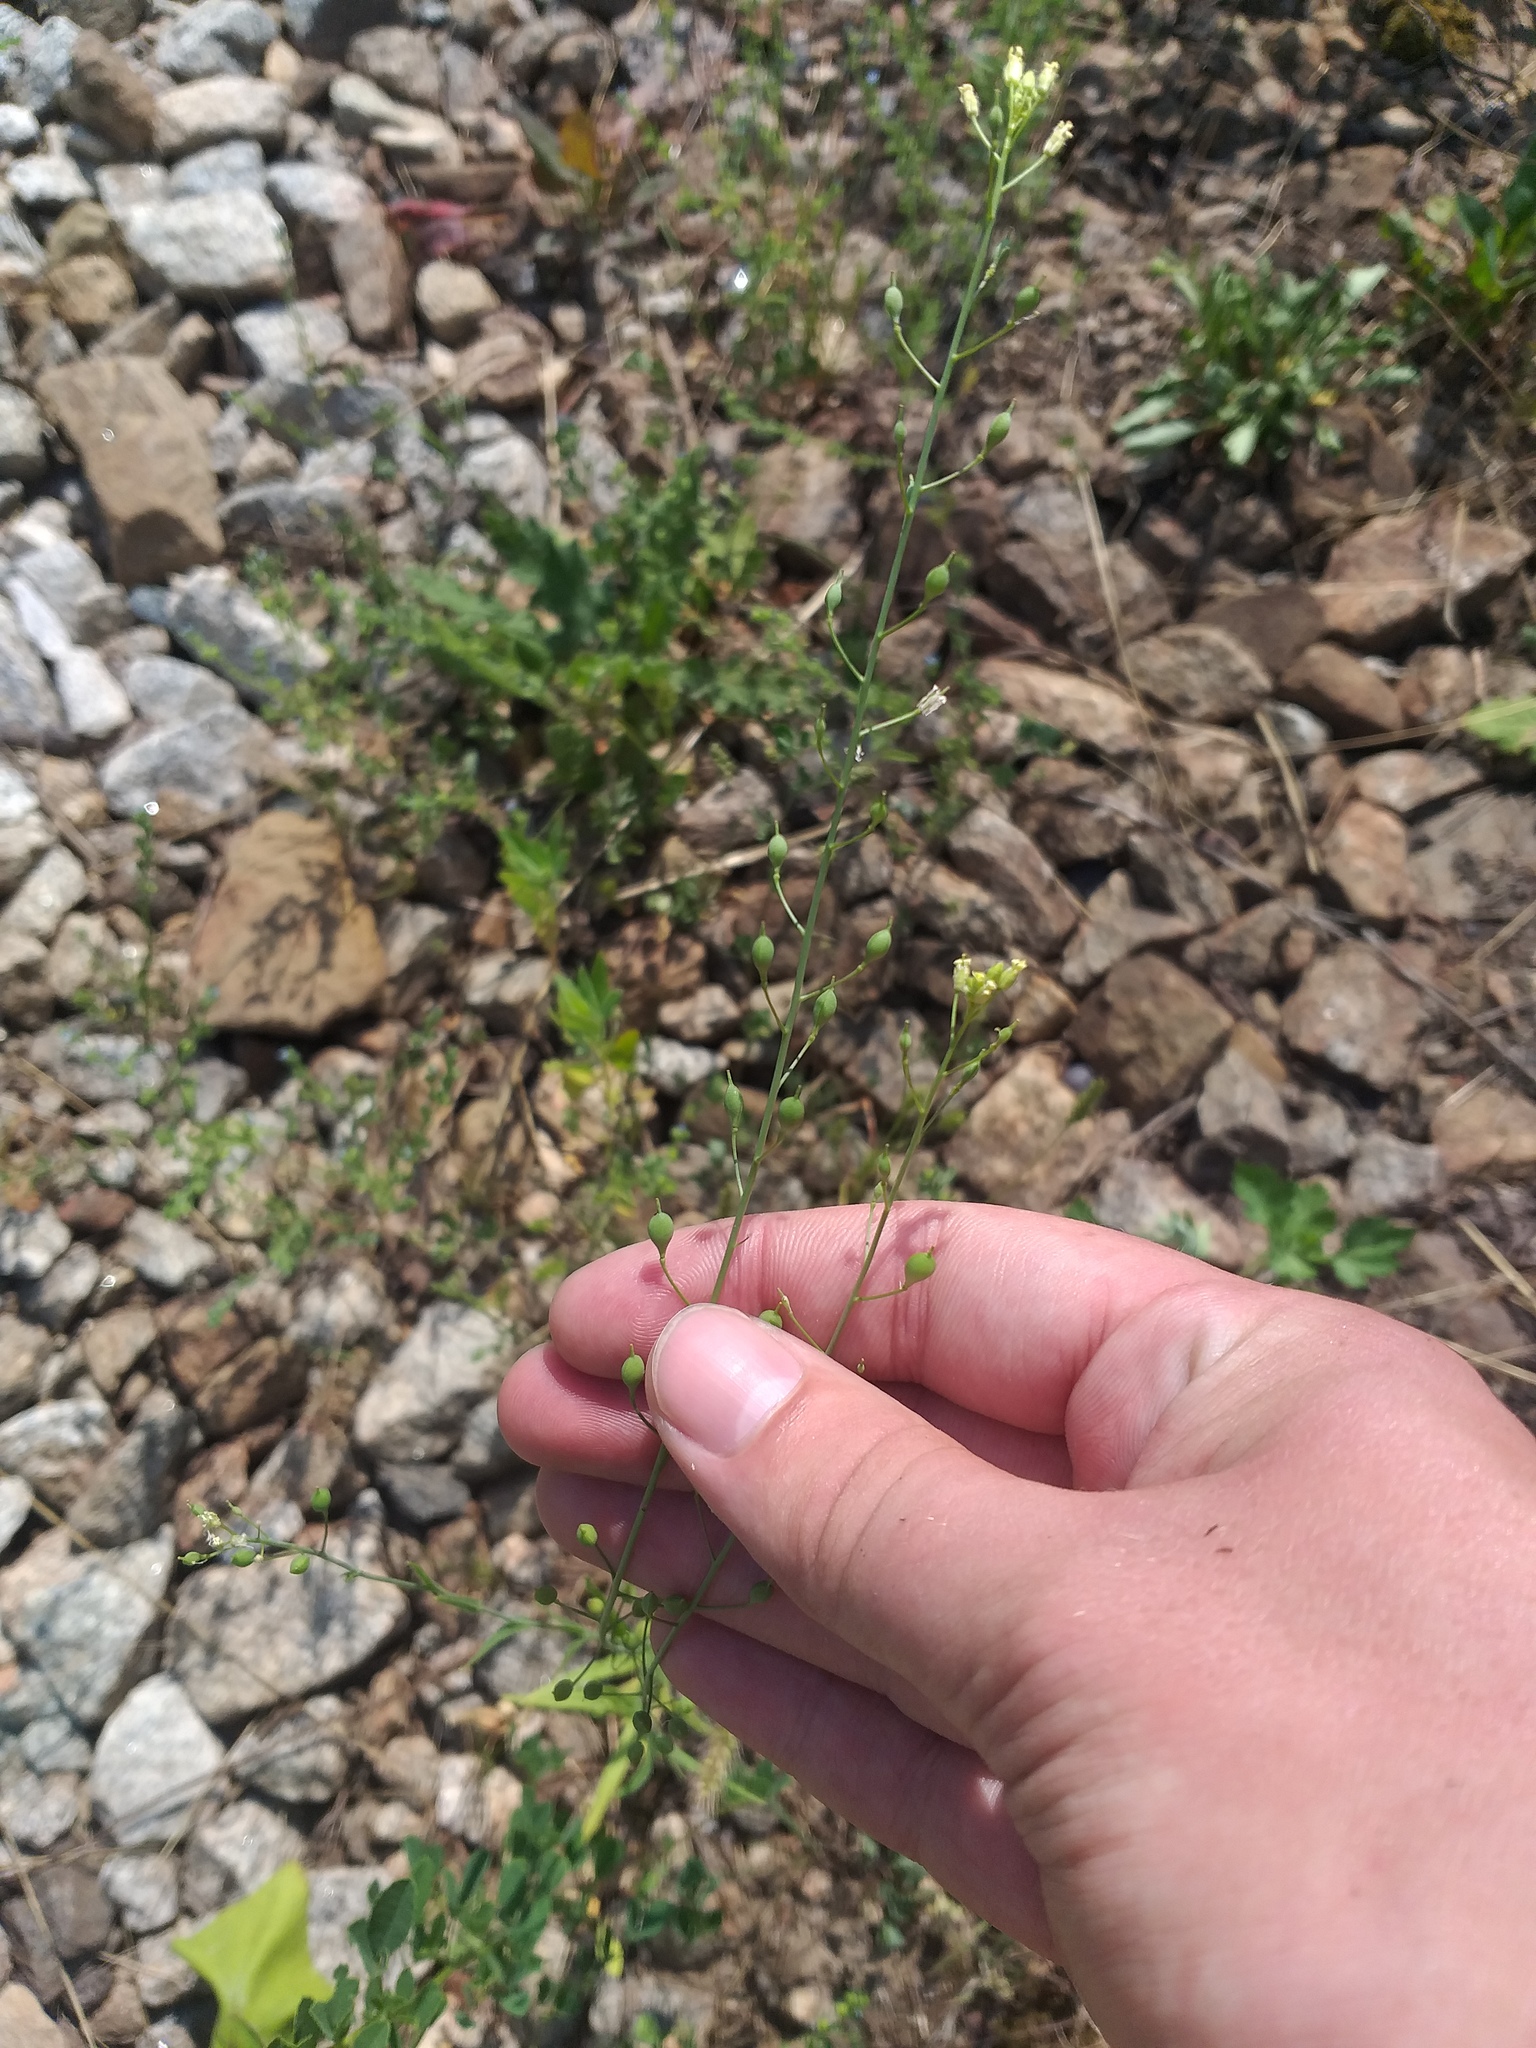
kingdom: Plantae
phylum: Tracheophyta
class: Magnoliopsida
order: Brassicales
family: Brassicaceae
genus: Camelina
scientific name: Camelina microcarpa
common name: Lesser gold-of-pleasure
